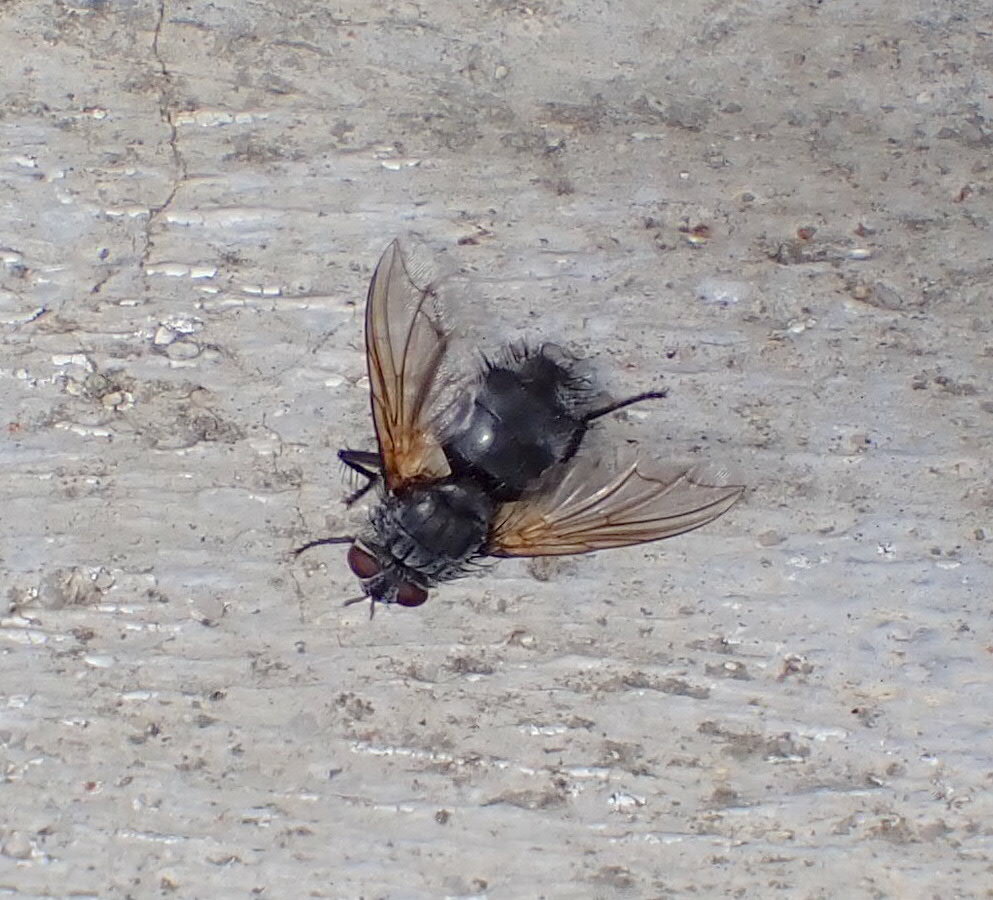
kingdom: Animalia
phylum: Arthropoda
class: Insecta
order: Diptera
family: Tachinidae
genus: Nemoraea
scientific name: Nemoraea pellucida
